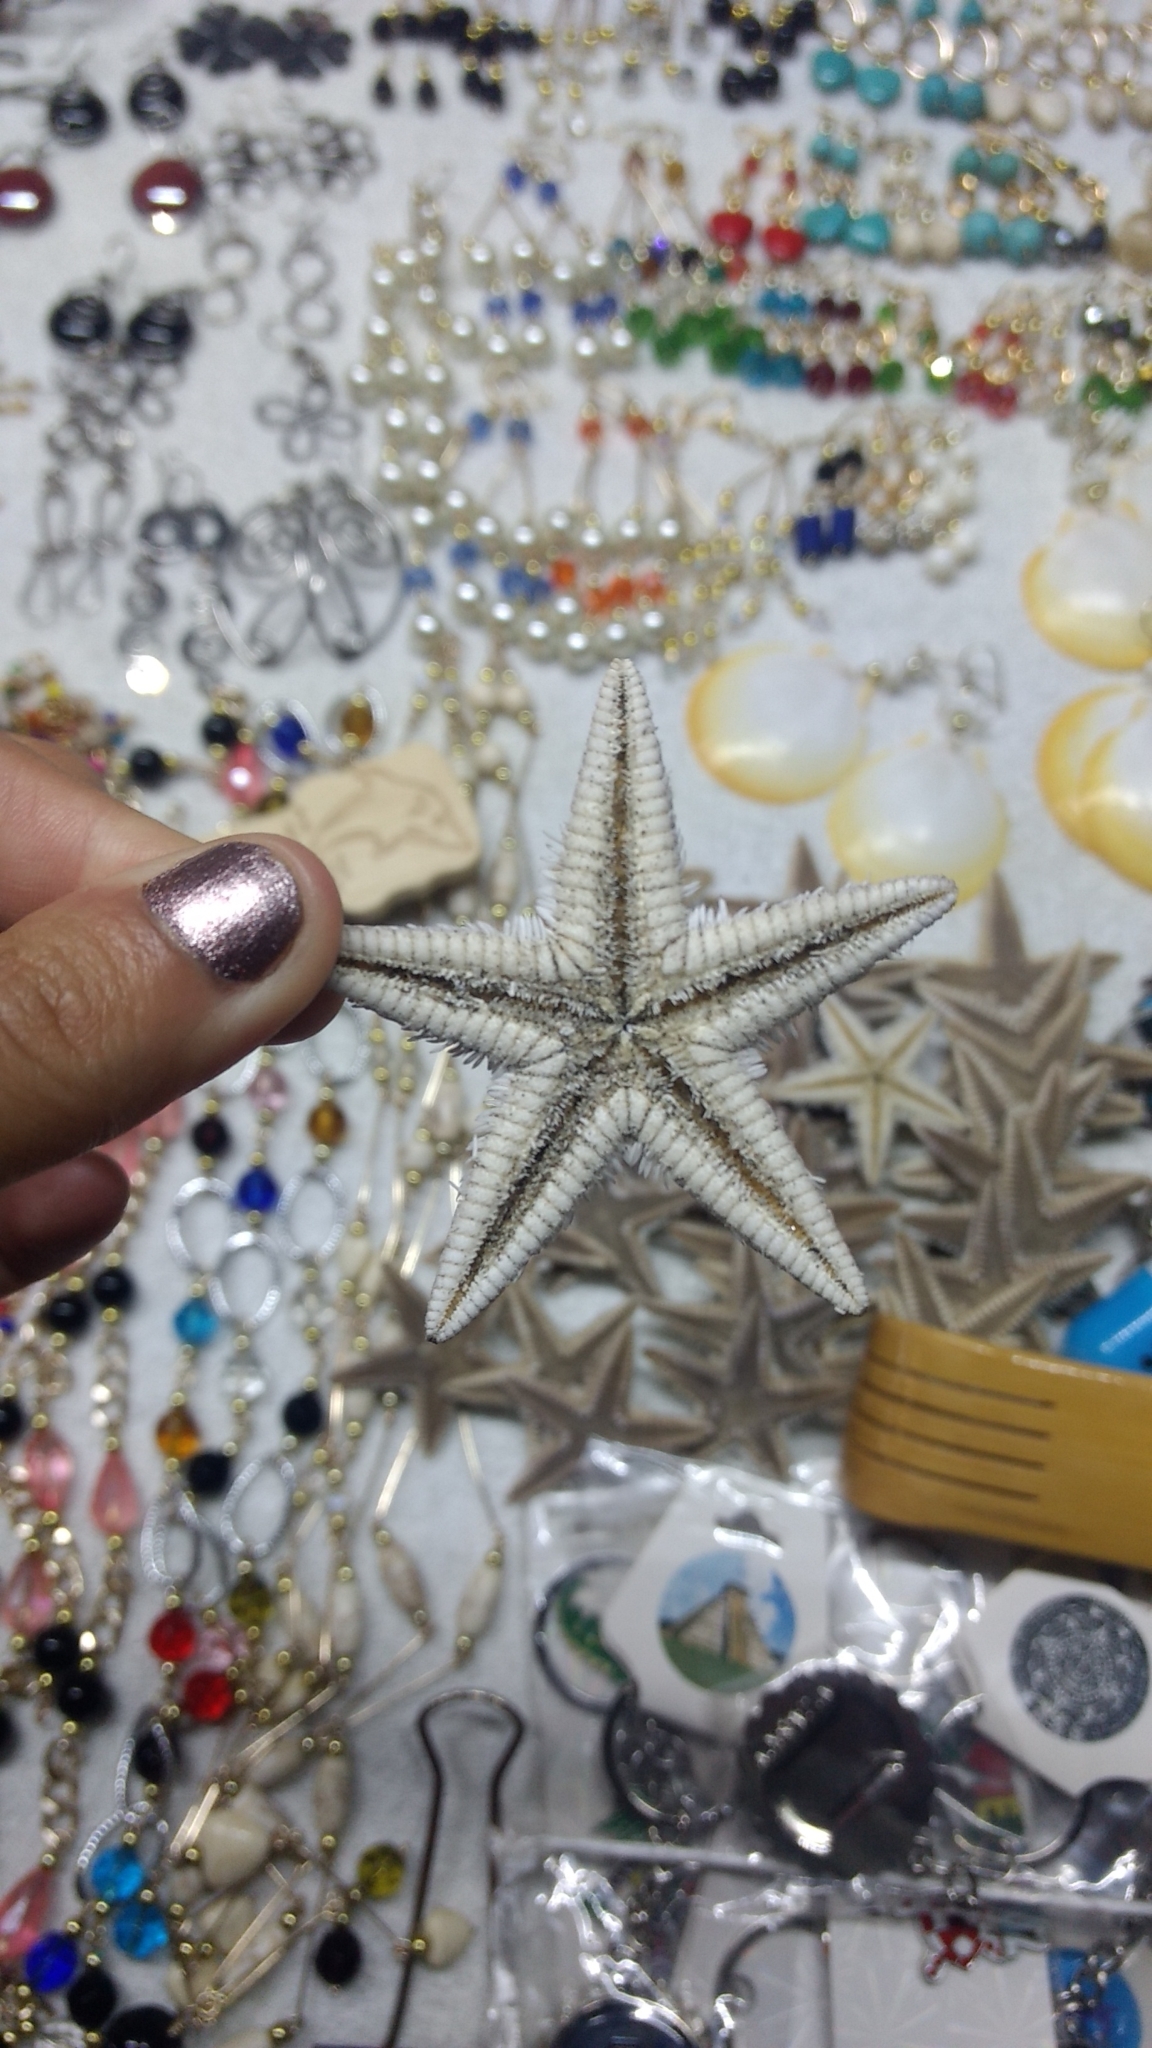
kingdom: Animalia
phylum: Echinodermata
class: Asteroidea
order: Paxillosida
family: Astropectinidae
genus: Astropecten
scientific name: Astropecten duplicatus
